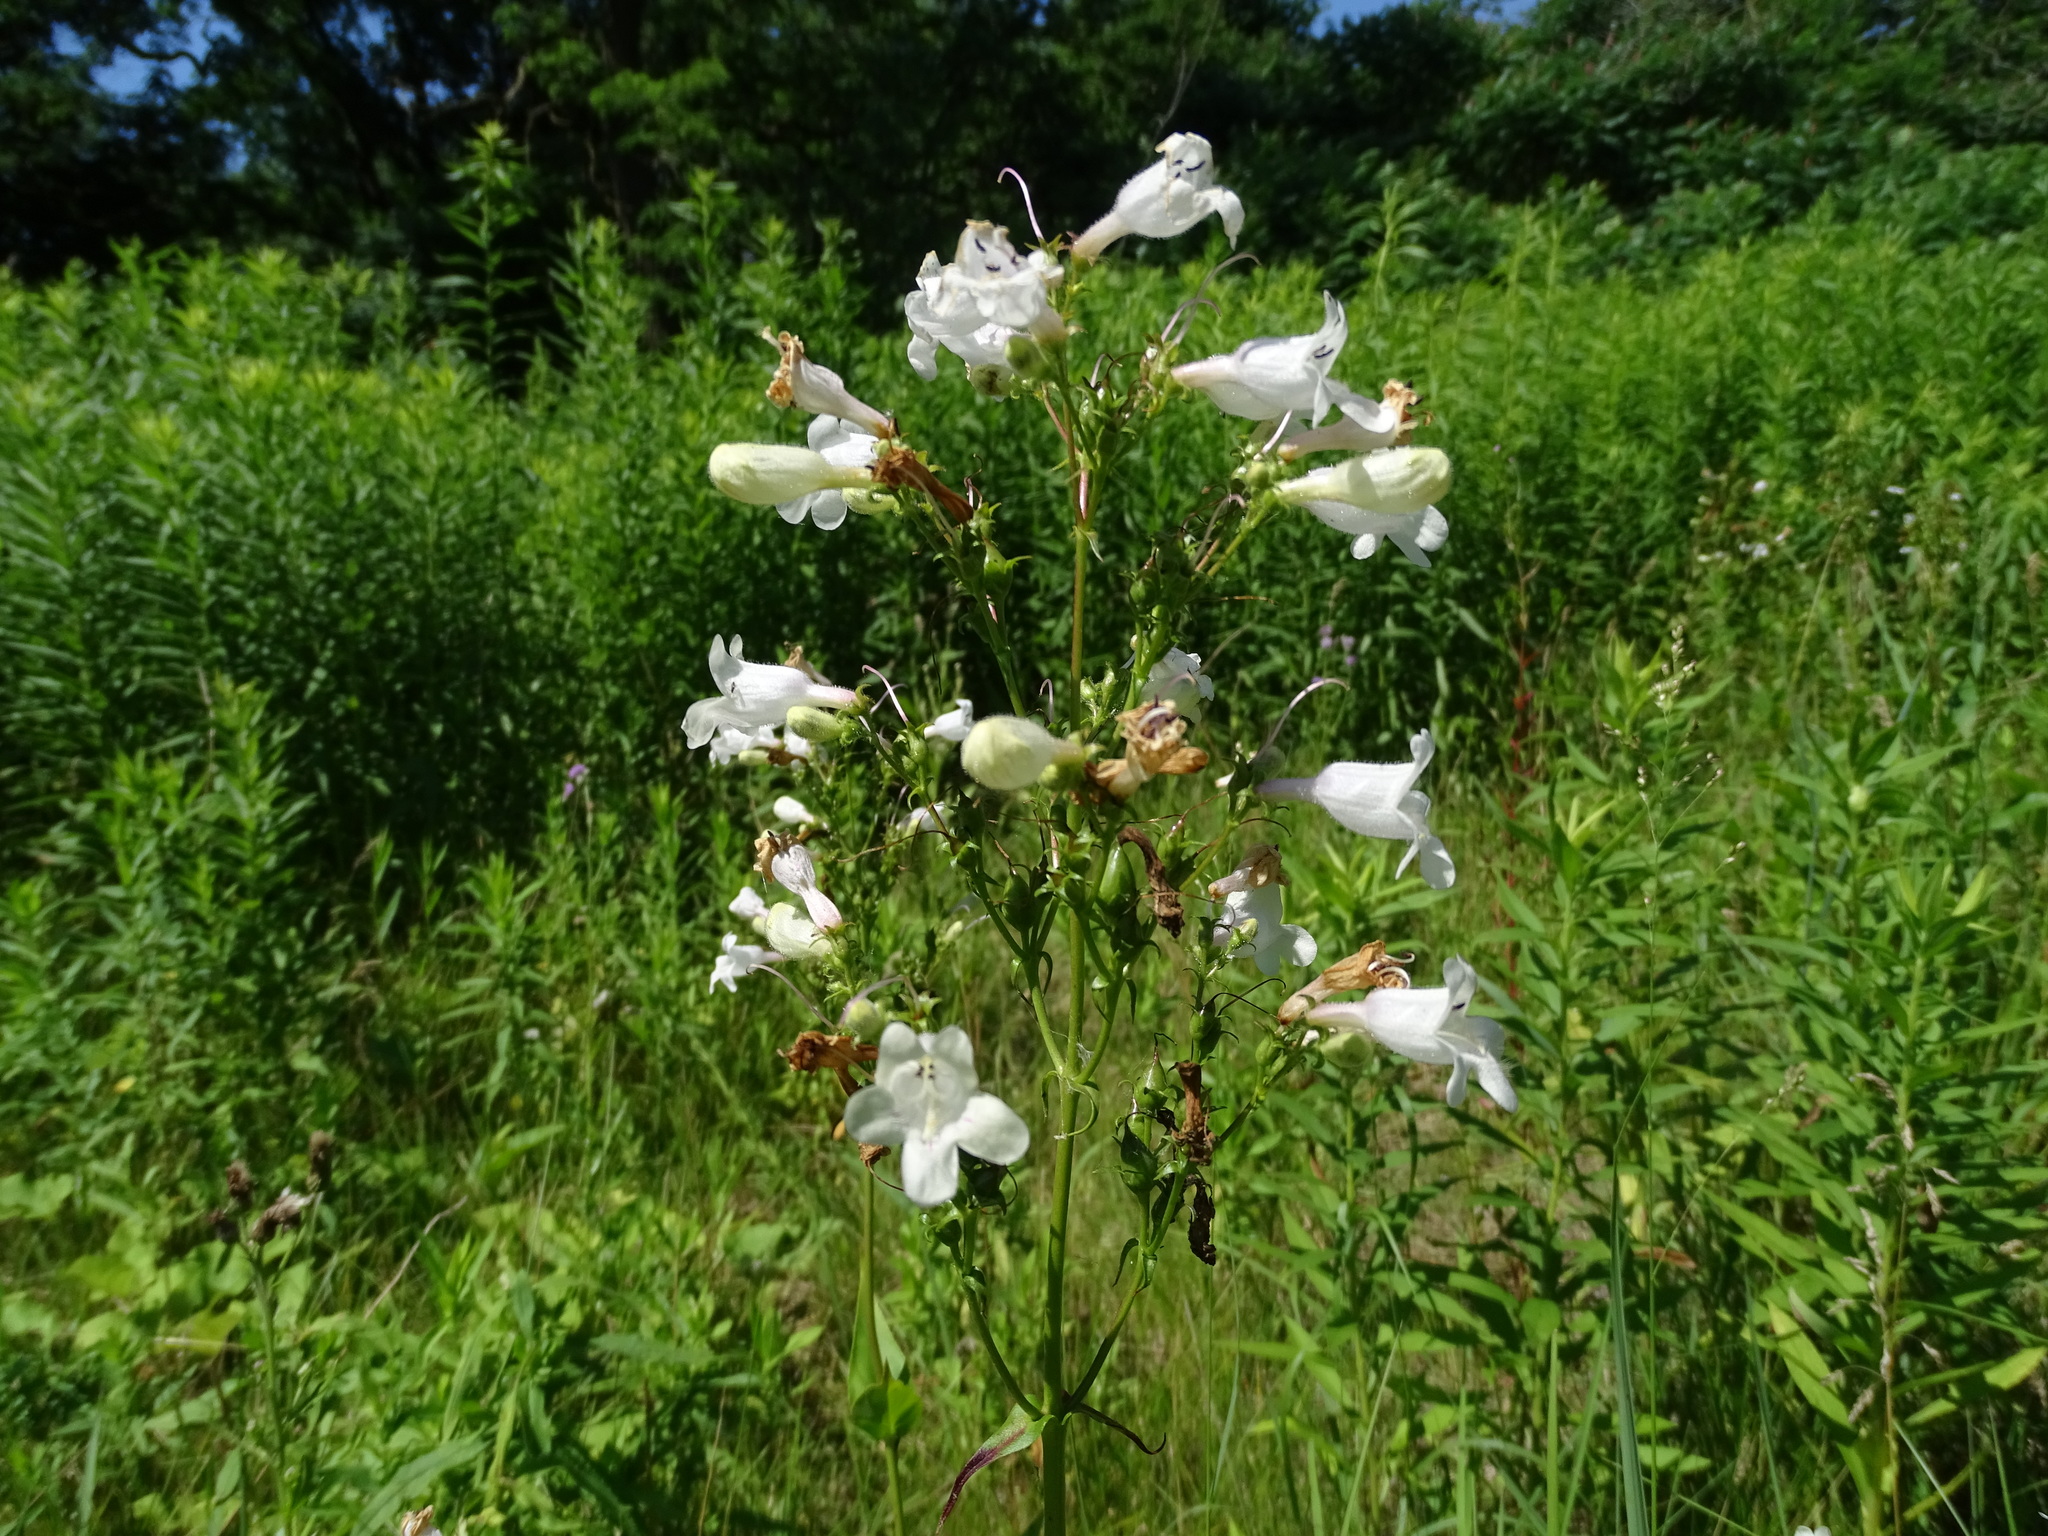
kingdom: Plantae
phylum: Tracheophyta
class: Magnoliopsida
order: Lamiales
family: Plantaginaceae
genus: Penstemon
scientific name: Penstemon digitalis
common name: Foxglove beardtongue
